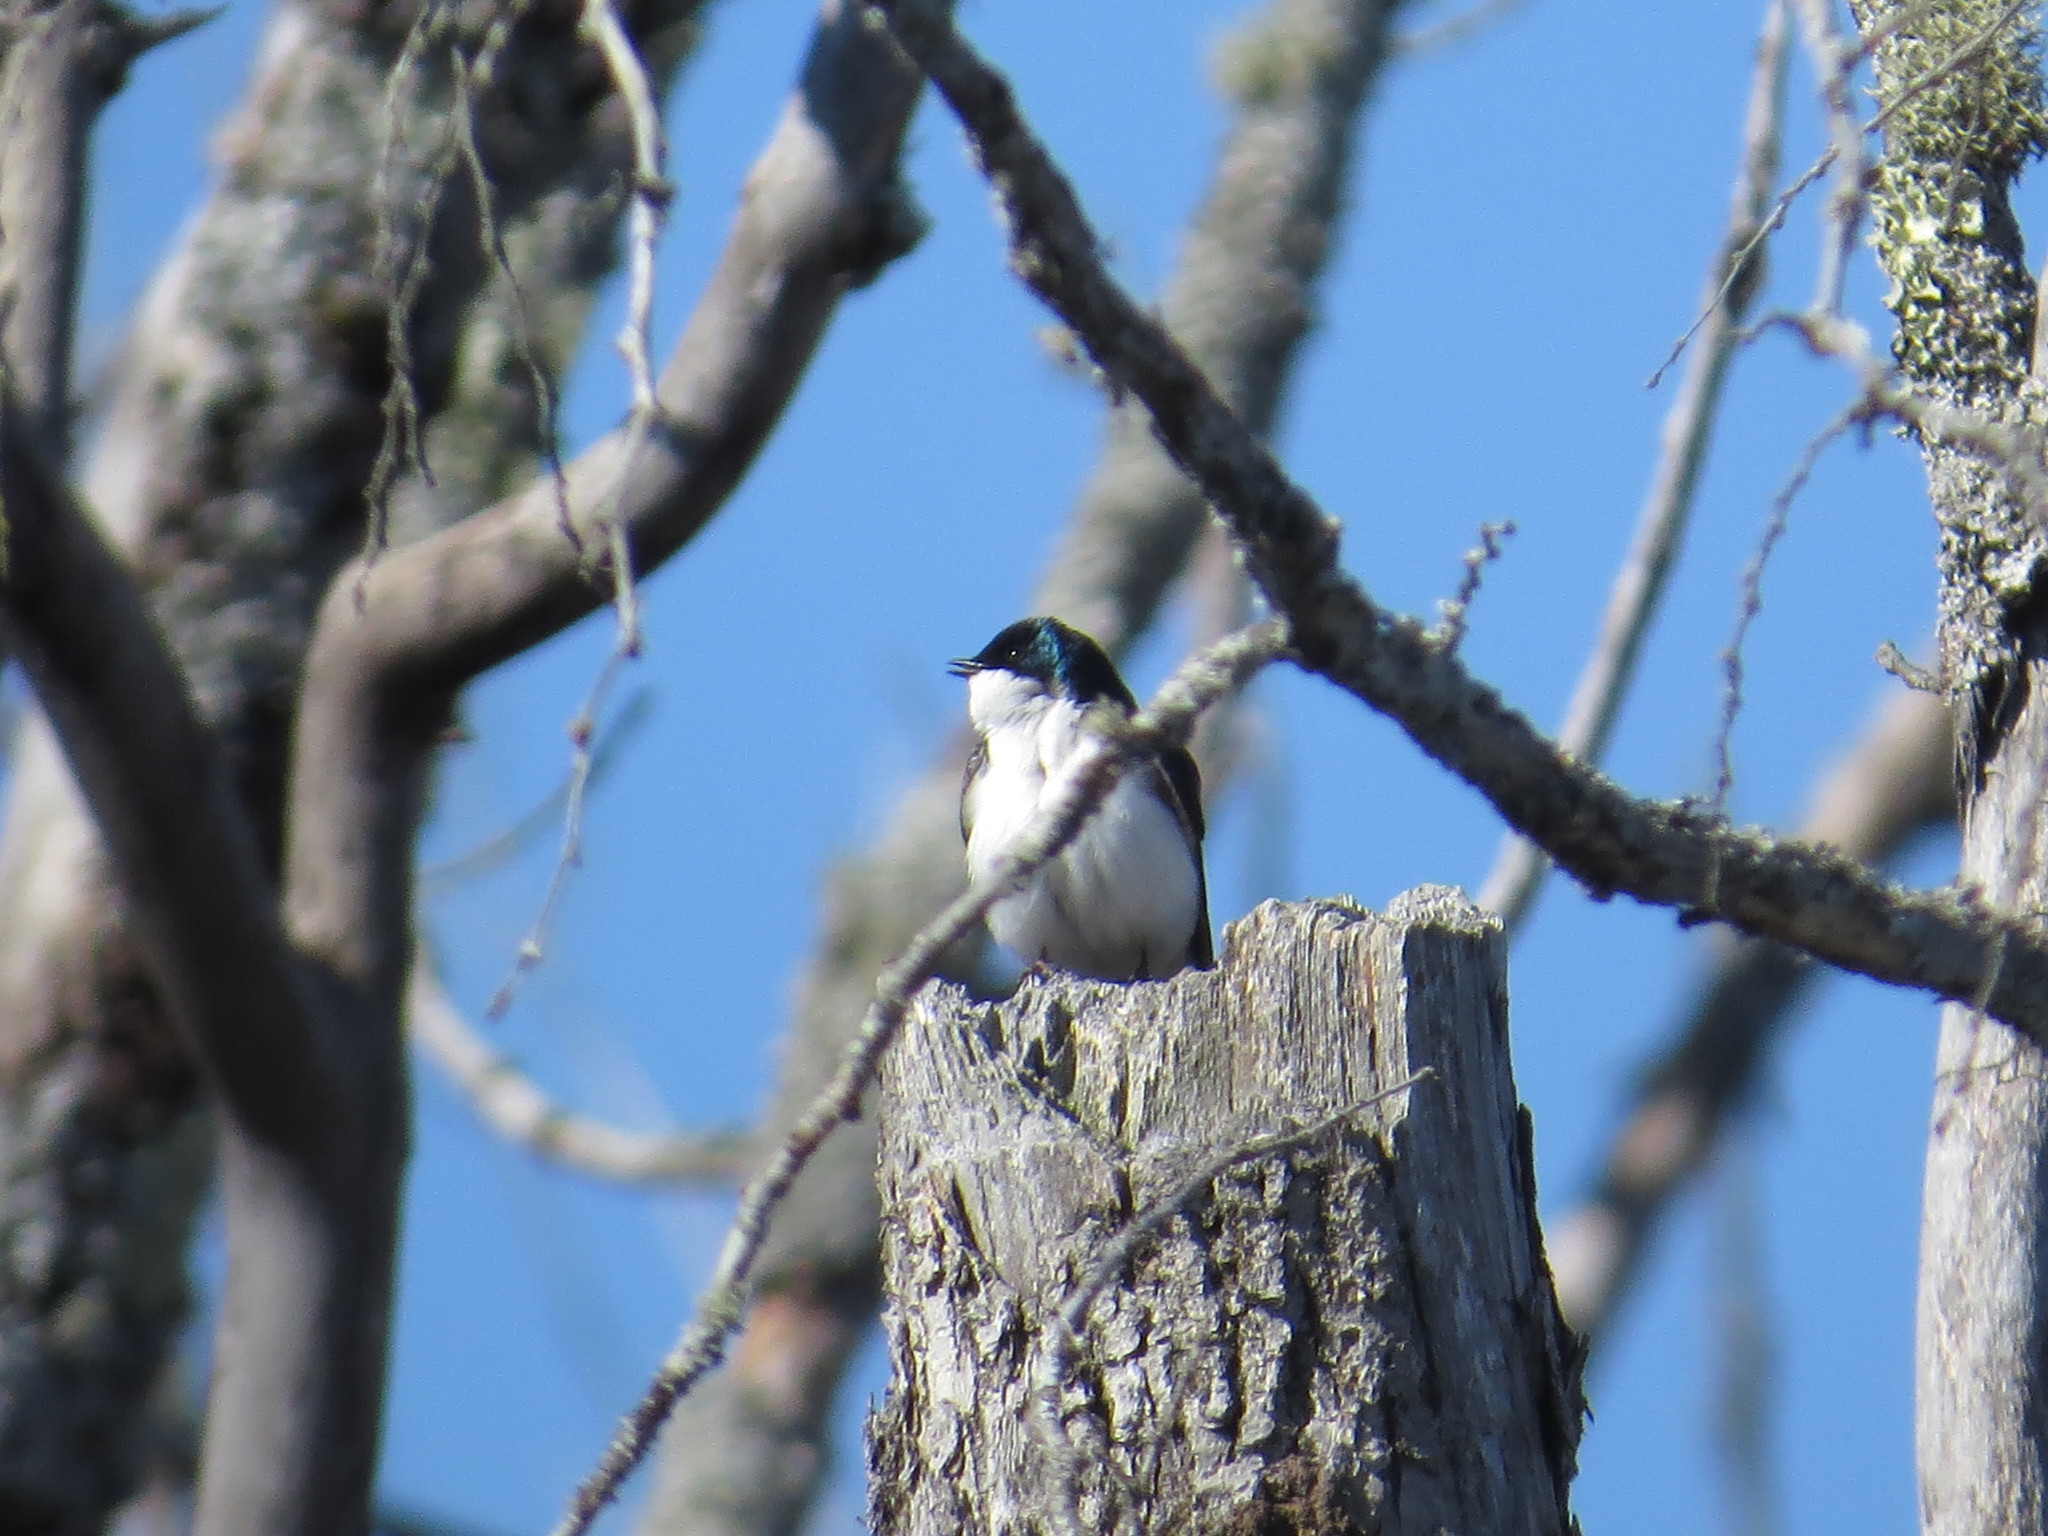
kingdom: Animalia
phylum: Chordata
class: Aves
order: Passeriformes
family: Hirundinidae
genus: Tachycineta
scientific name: Tachycineta bicolor
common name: Tree swallow
